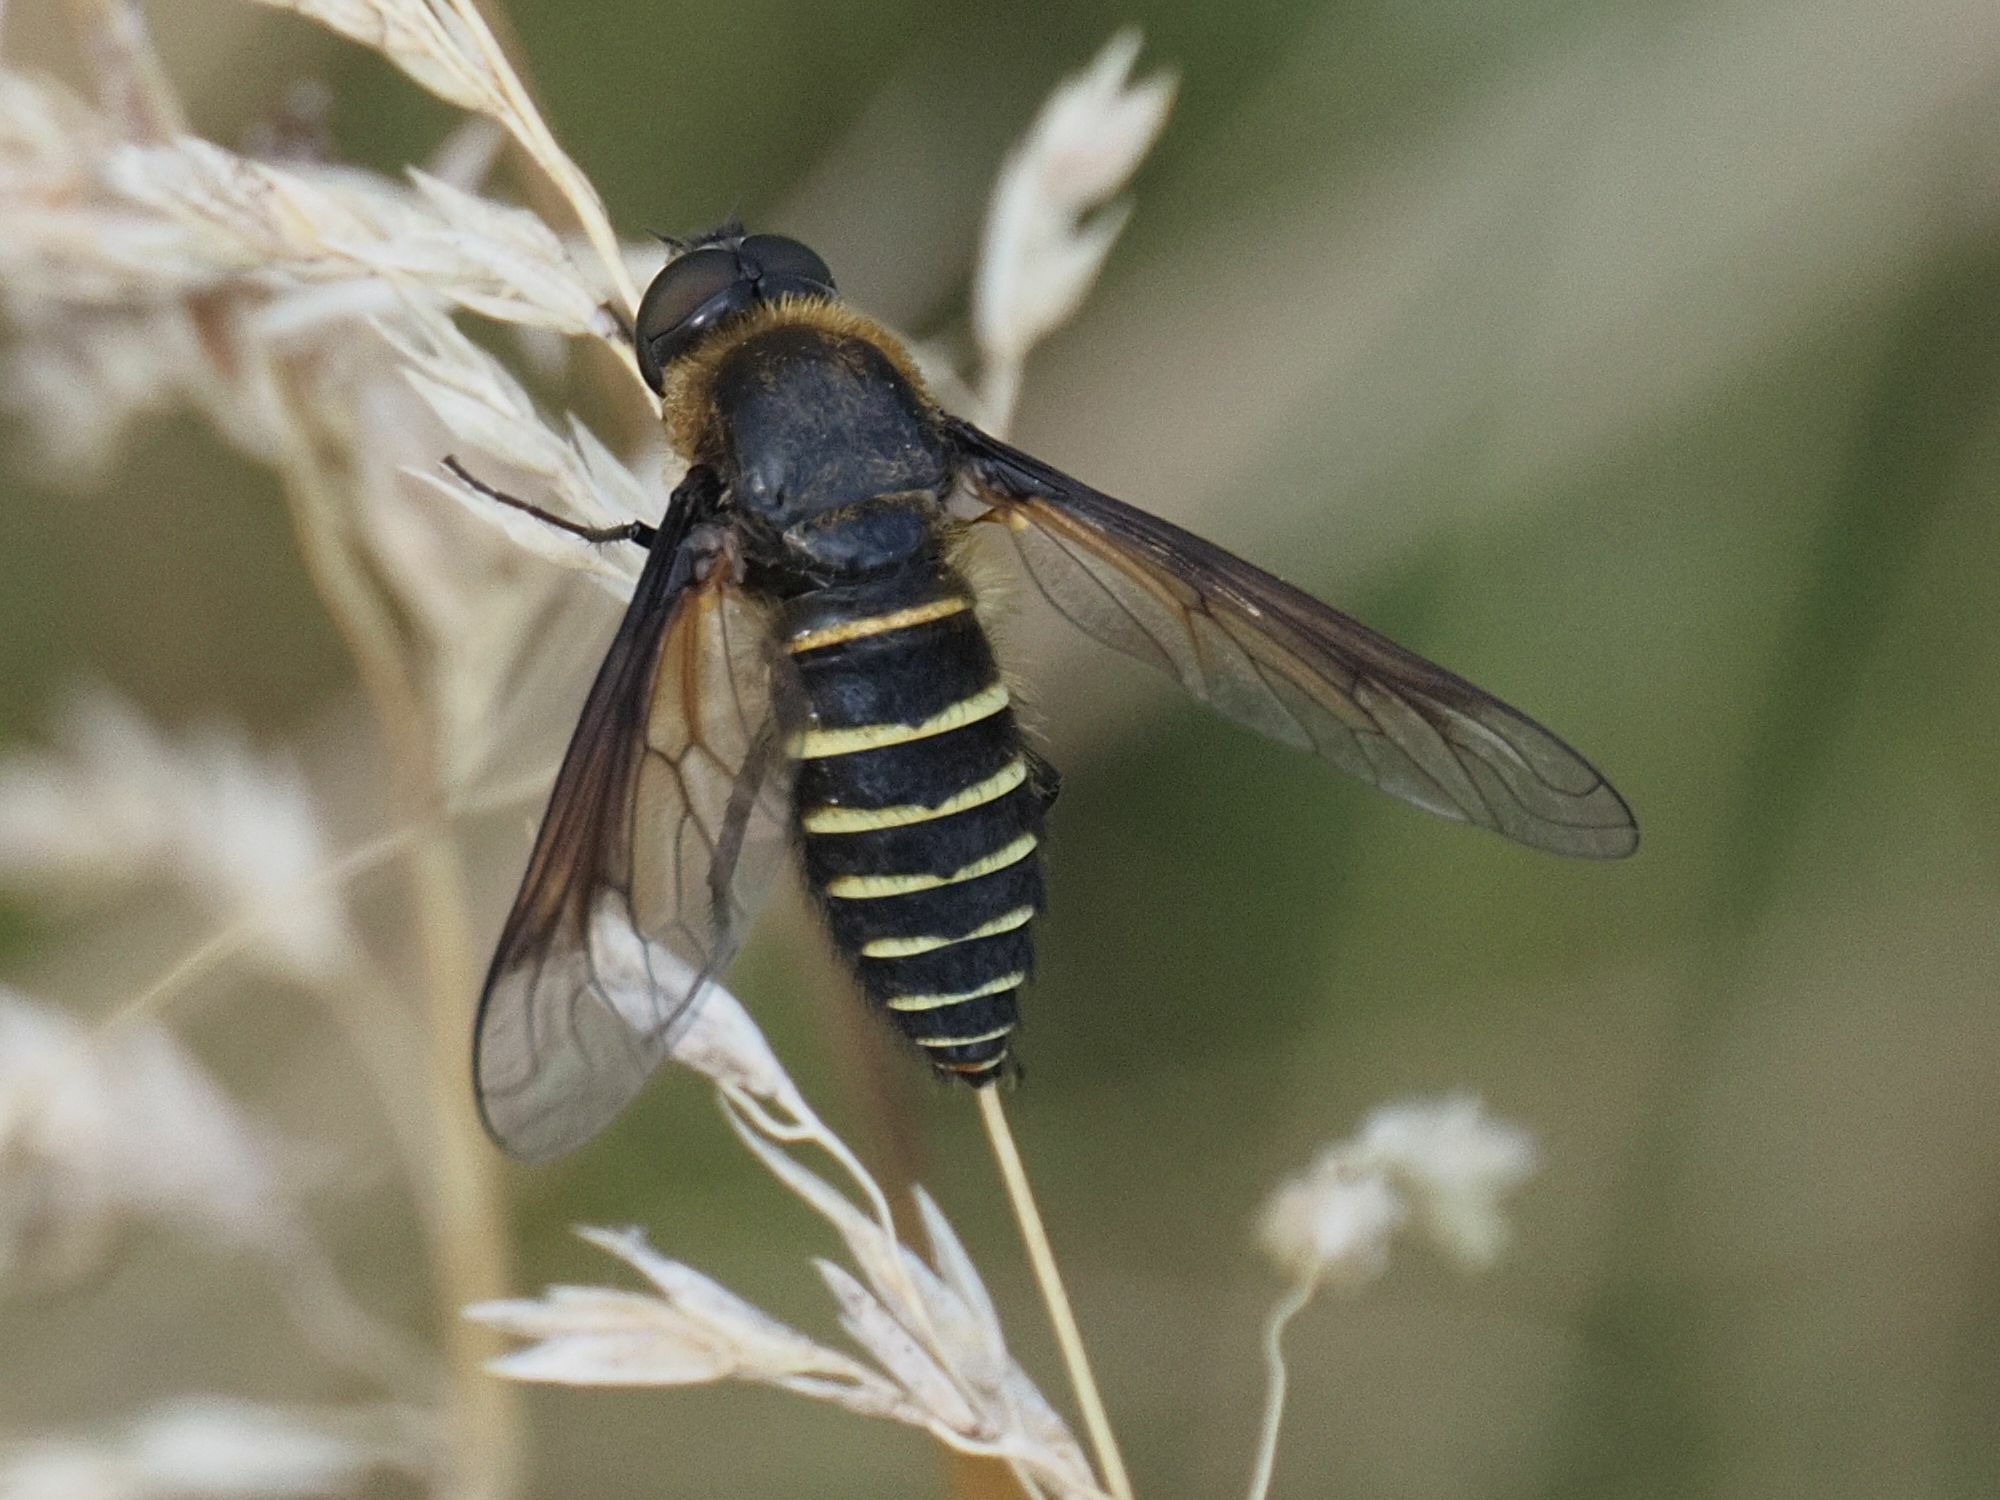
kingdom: Animalia
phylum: Arthropoda
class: Insecta
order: Diptera
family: Bombyliidae
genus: Lomatia
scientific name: Lomatia lateralis
